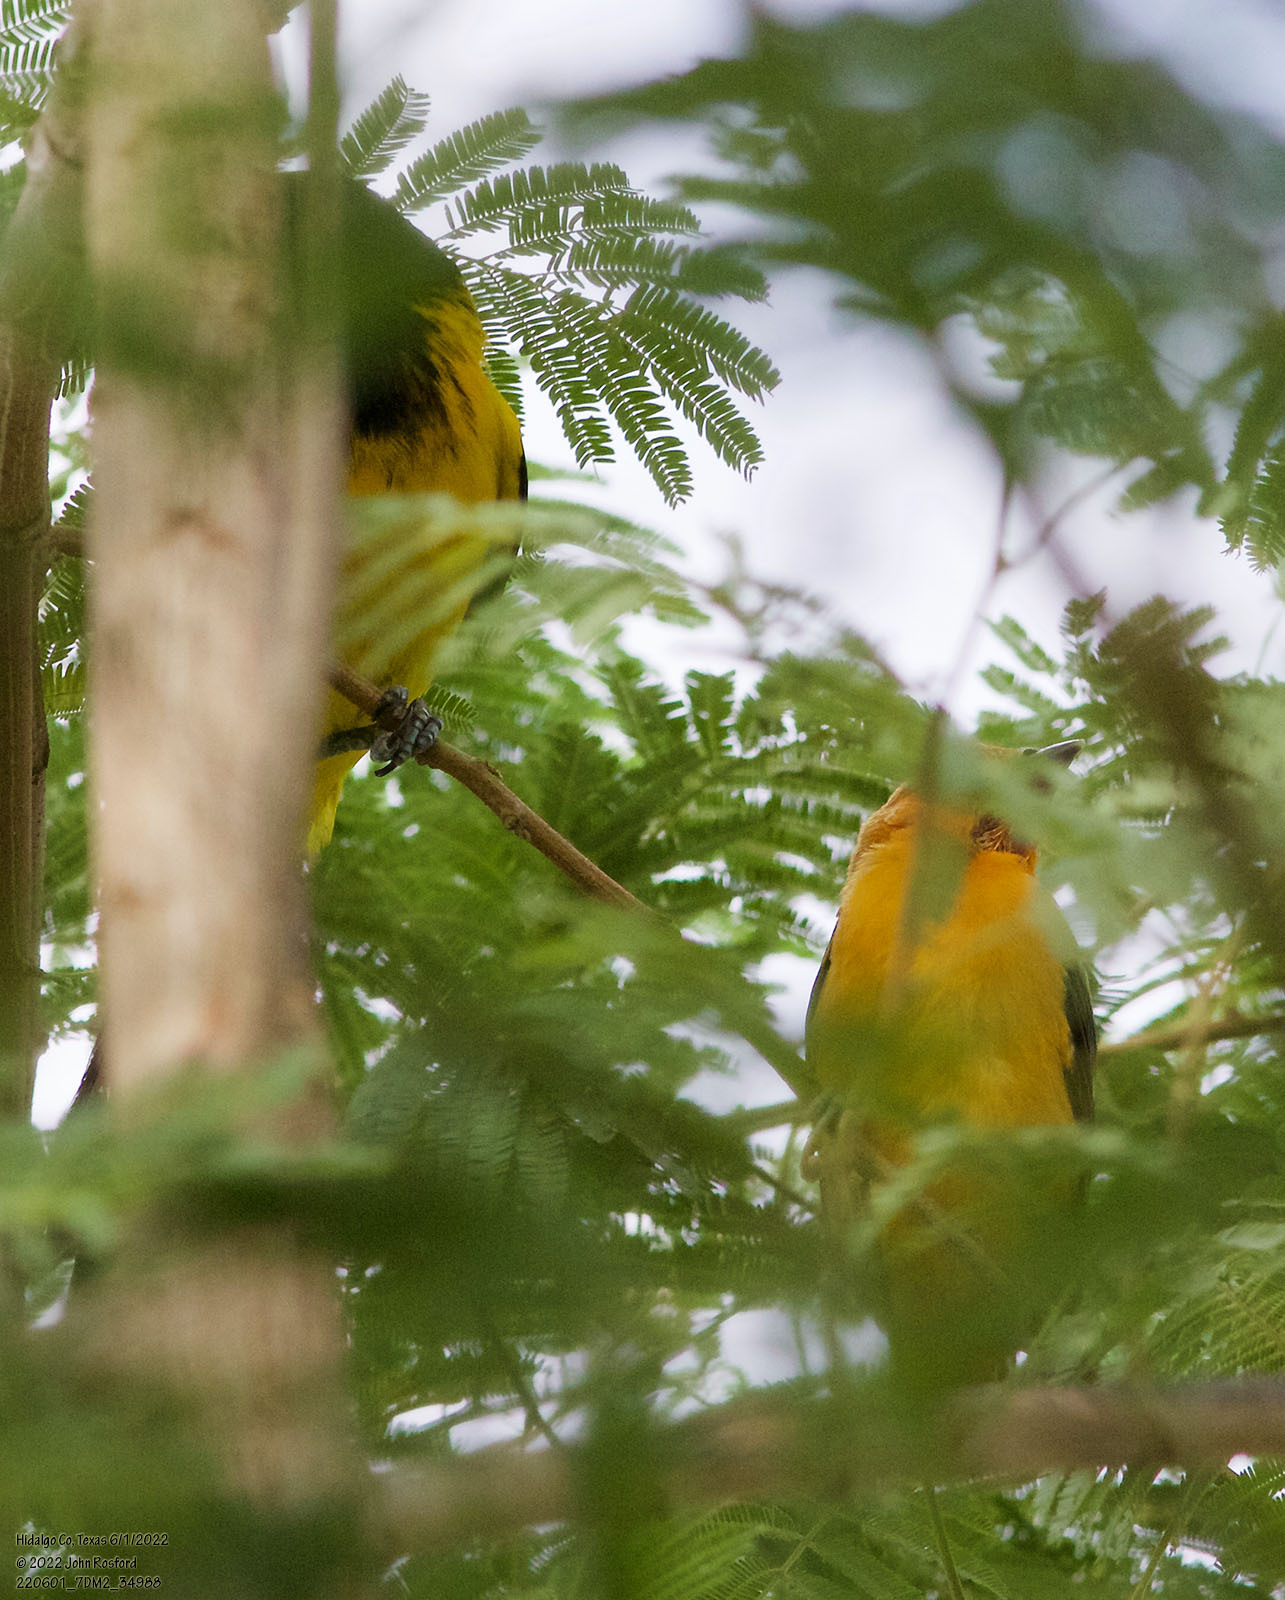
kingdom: Animalia
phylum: Chordata
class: Aves
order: Passeriformes
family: Icteridae
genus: Icterus
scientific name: Icterus
